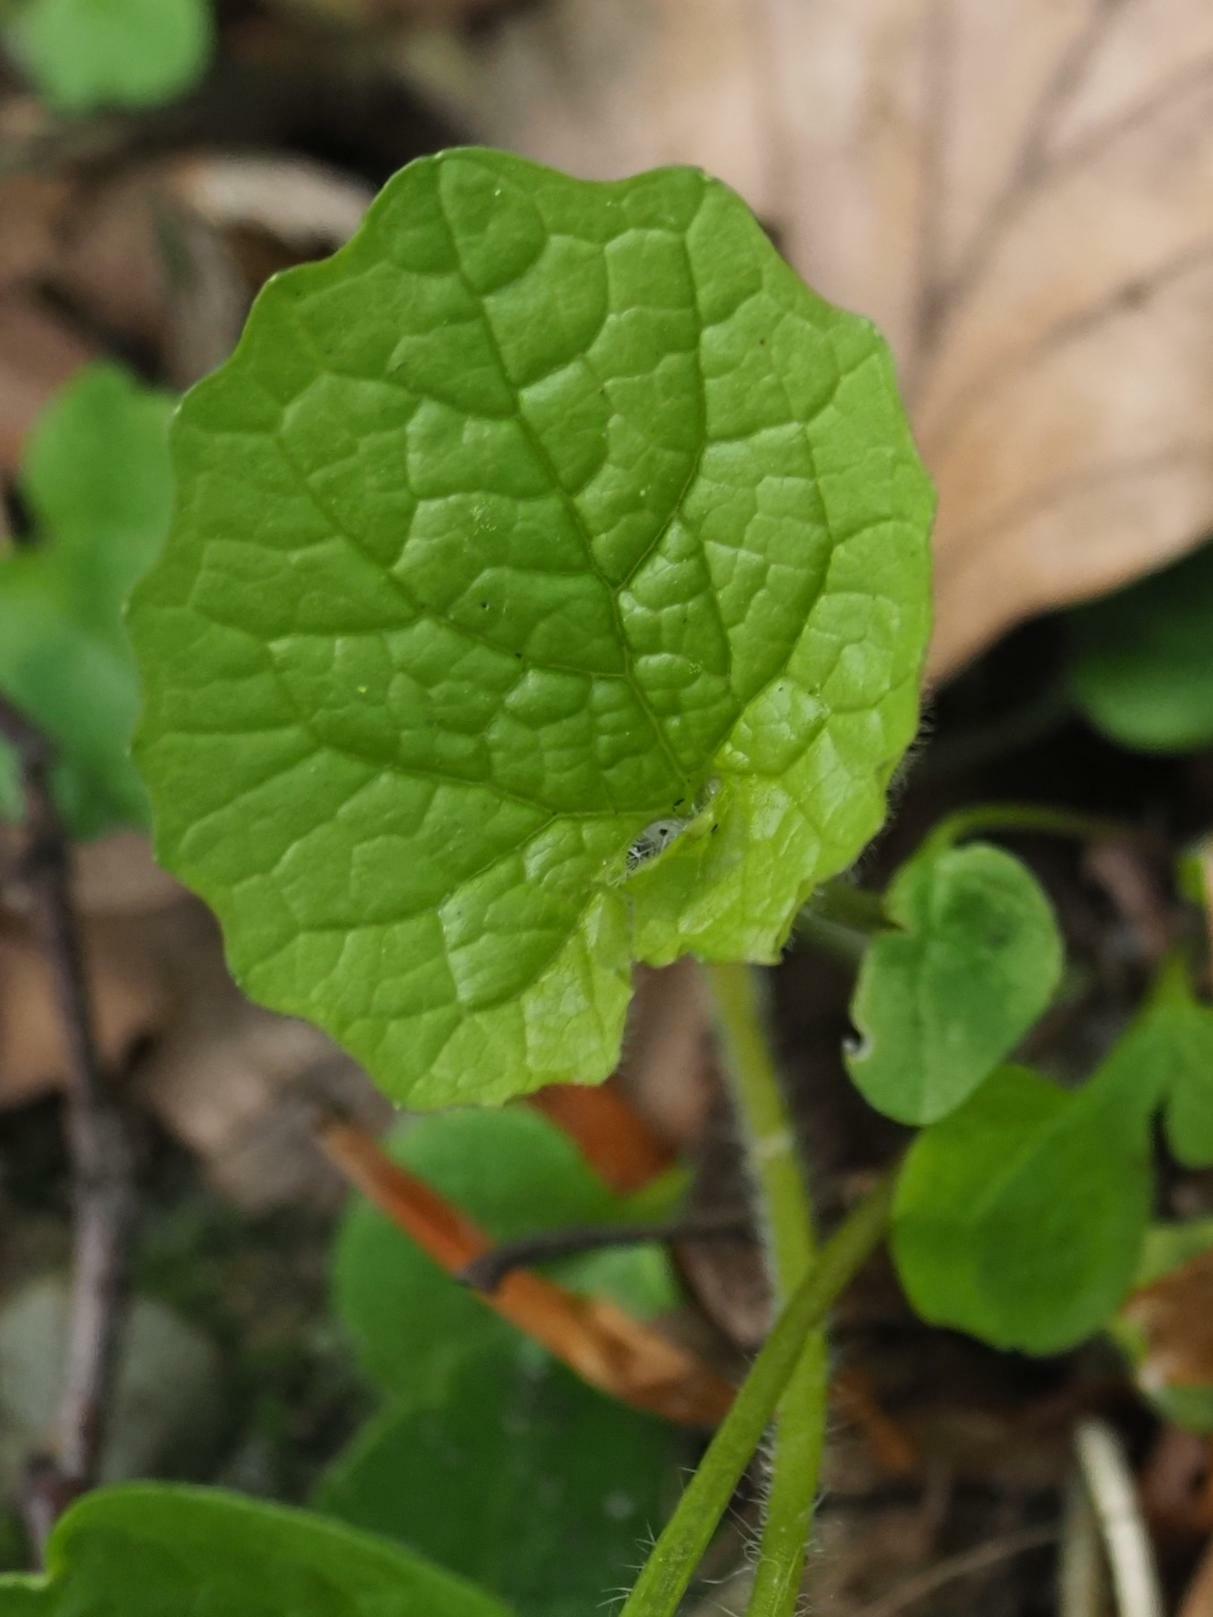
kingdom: Plantae
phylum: Tracheophyta
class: Magnoliopsida
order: Brassicales
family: Brassicaceae
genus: Alliaria
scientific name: Alliaria petiolata
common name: Garlic mustard
